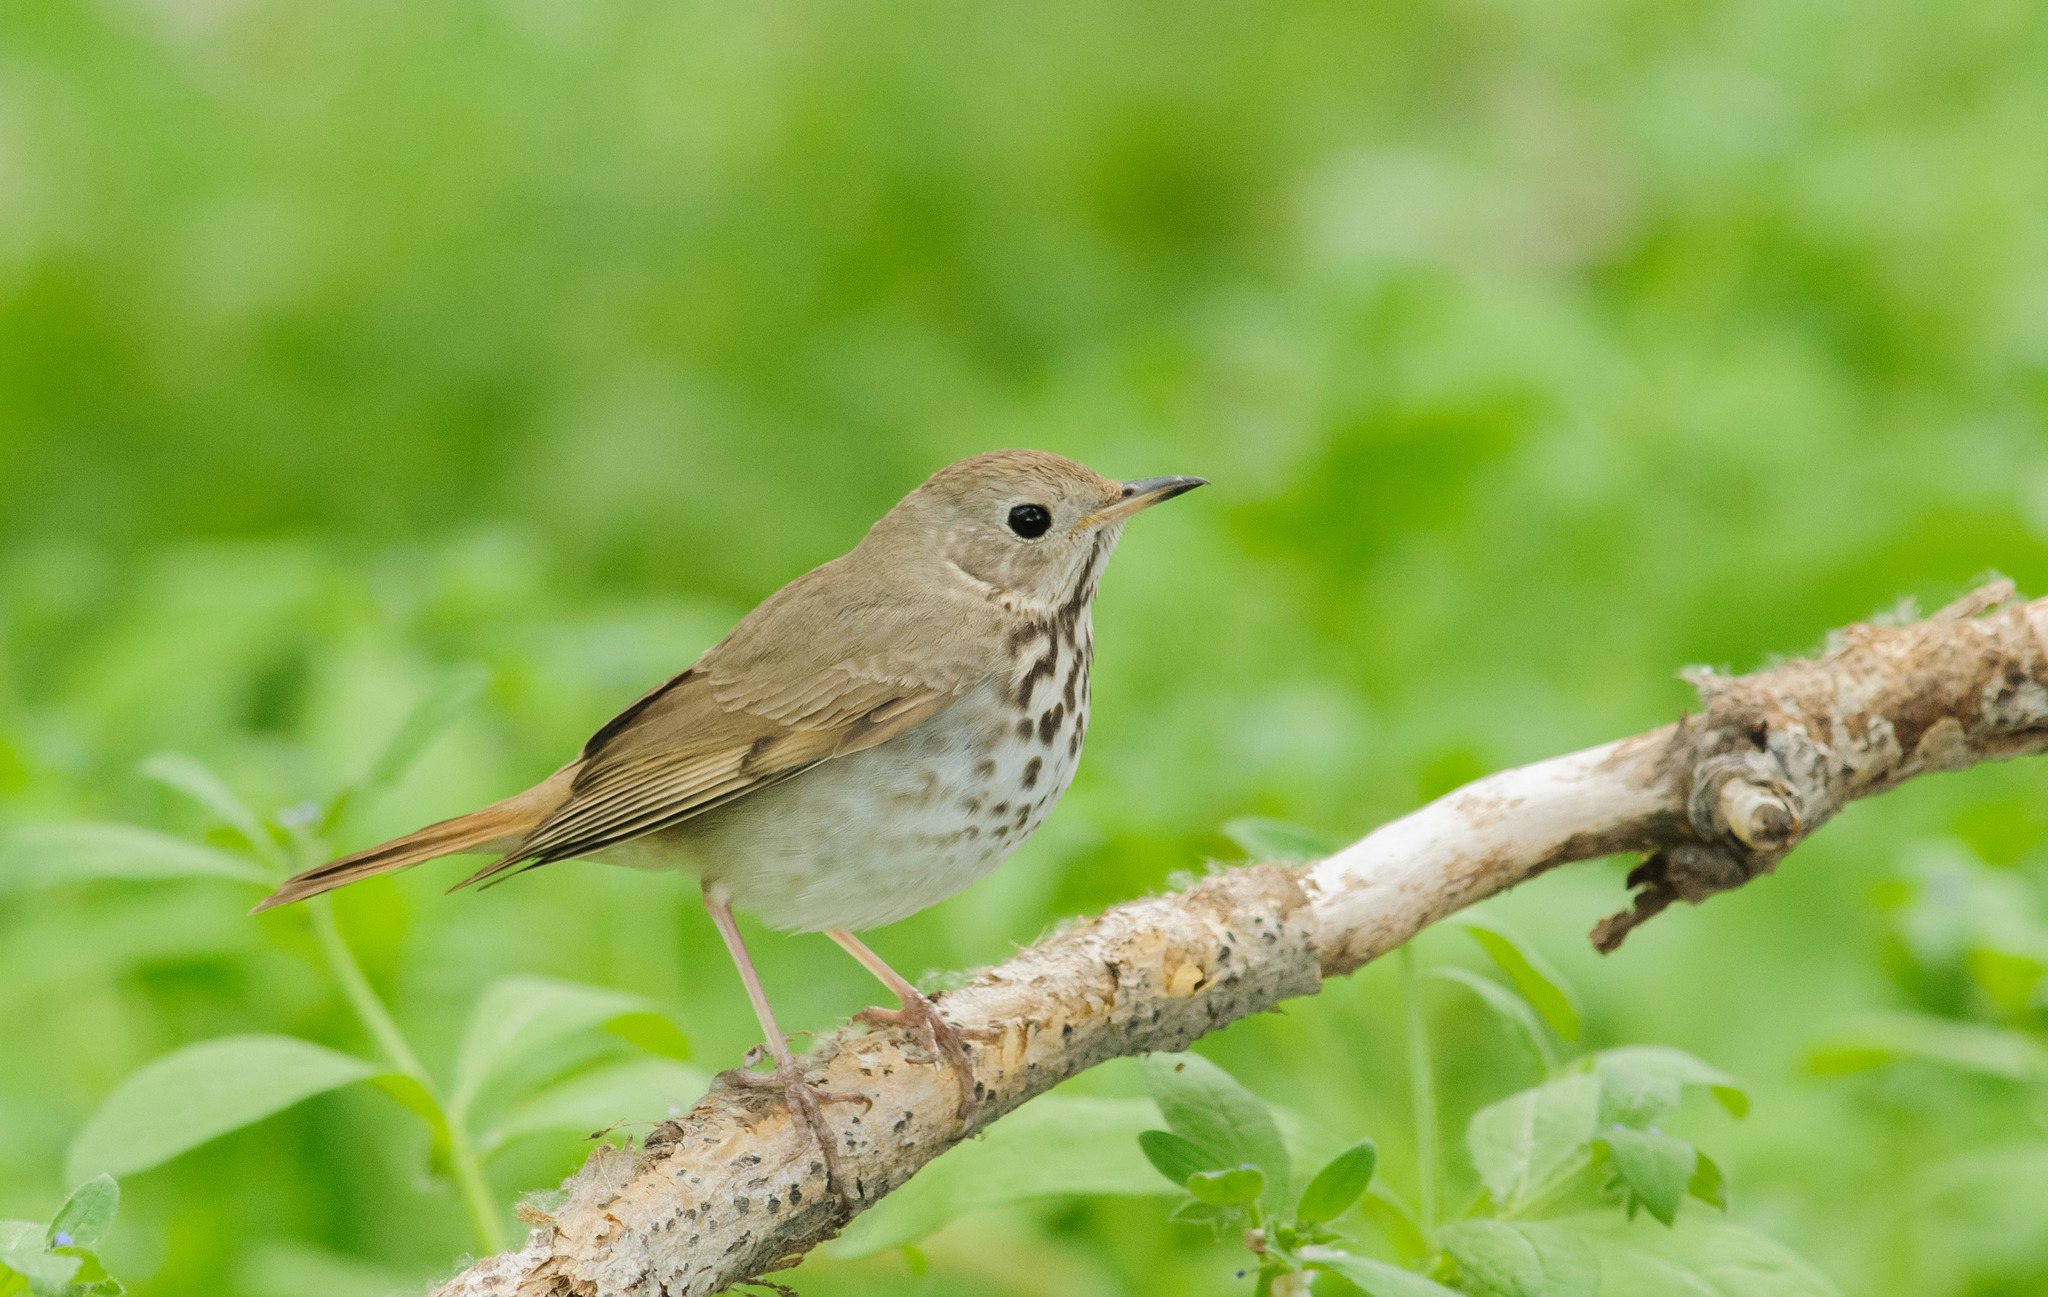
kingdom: Animalia
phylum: Chordata
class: Aves
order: Passeriformes
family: Turdidae
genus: Catharus
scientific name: Catharus guttatus
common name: Hermit thrush
